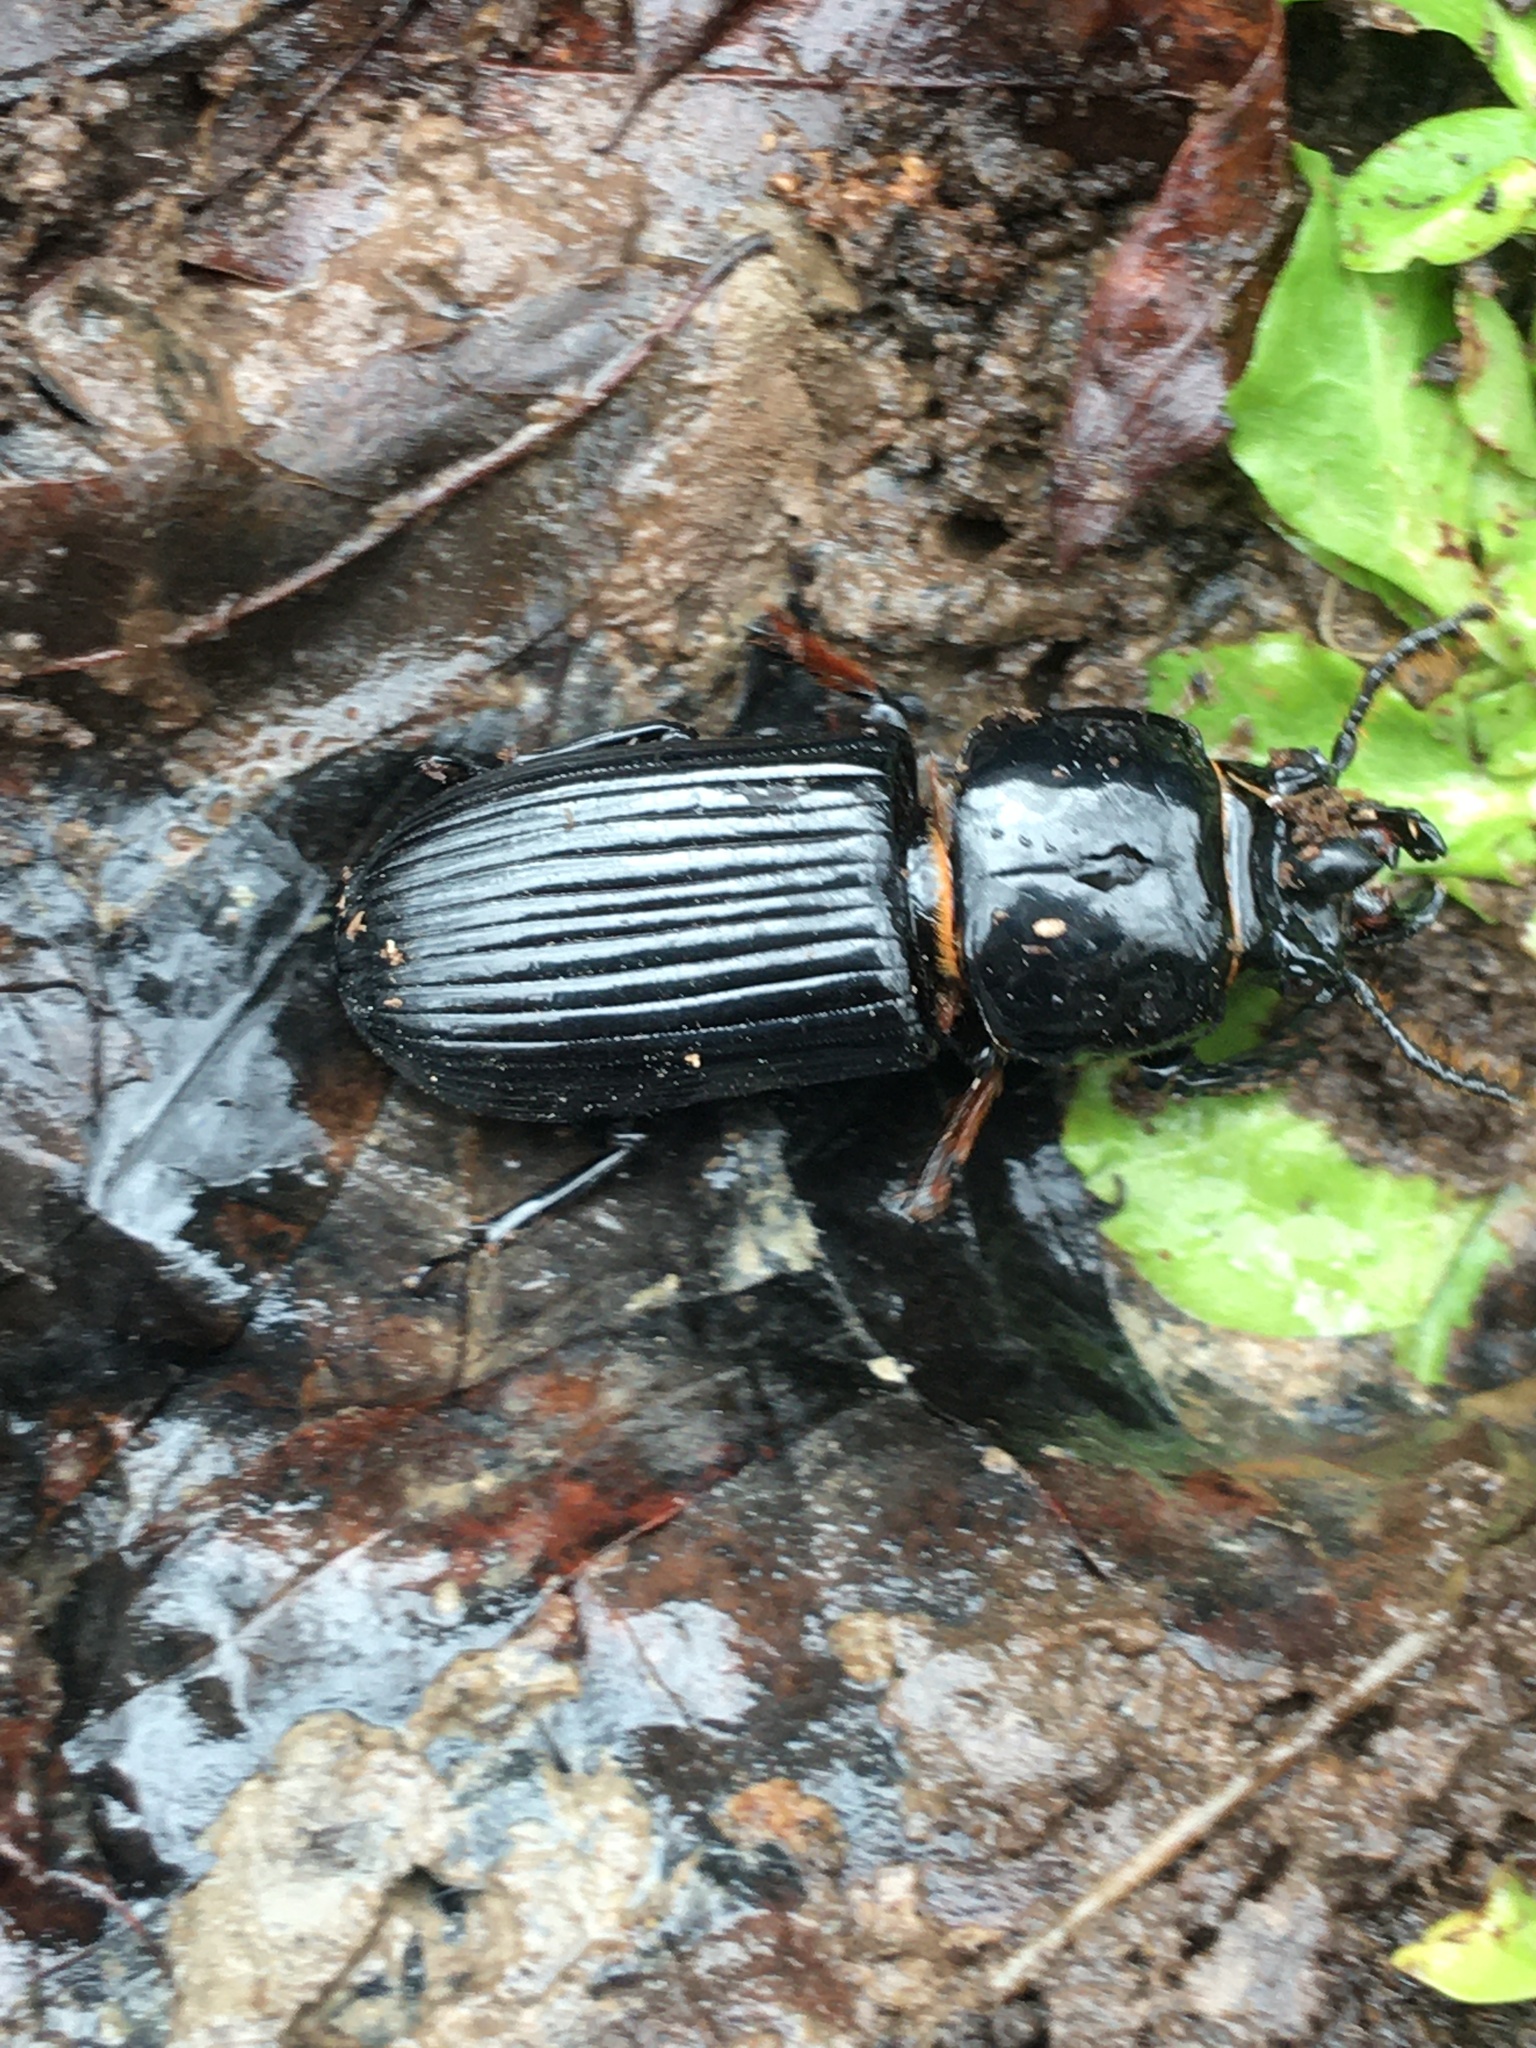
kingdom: Animalia
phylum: Arthropoda
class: Insecta
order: Coleoptera
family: Passalidae
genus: Odontotaenius
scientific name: Odontotaenius disjunctus
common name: Patent leather beetle
